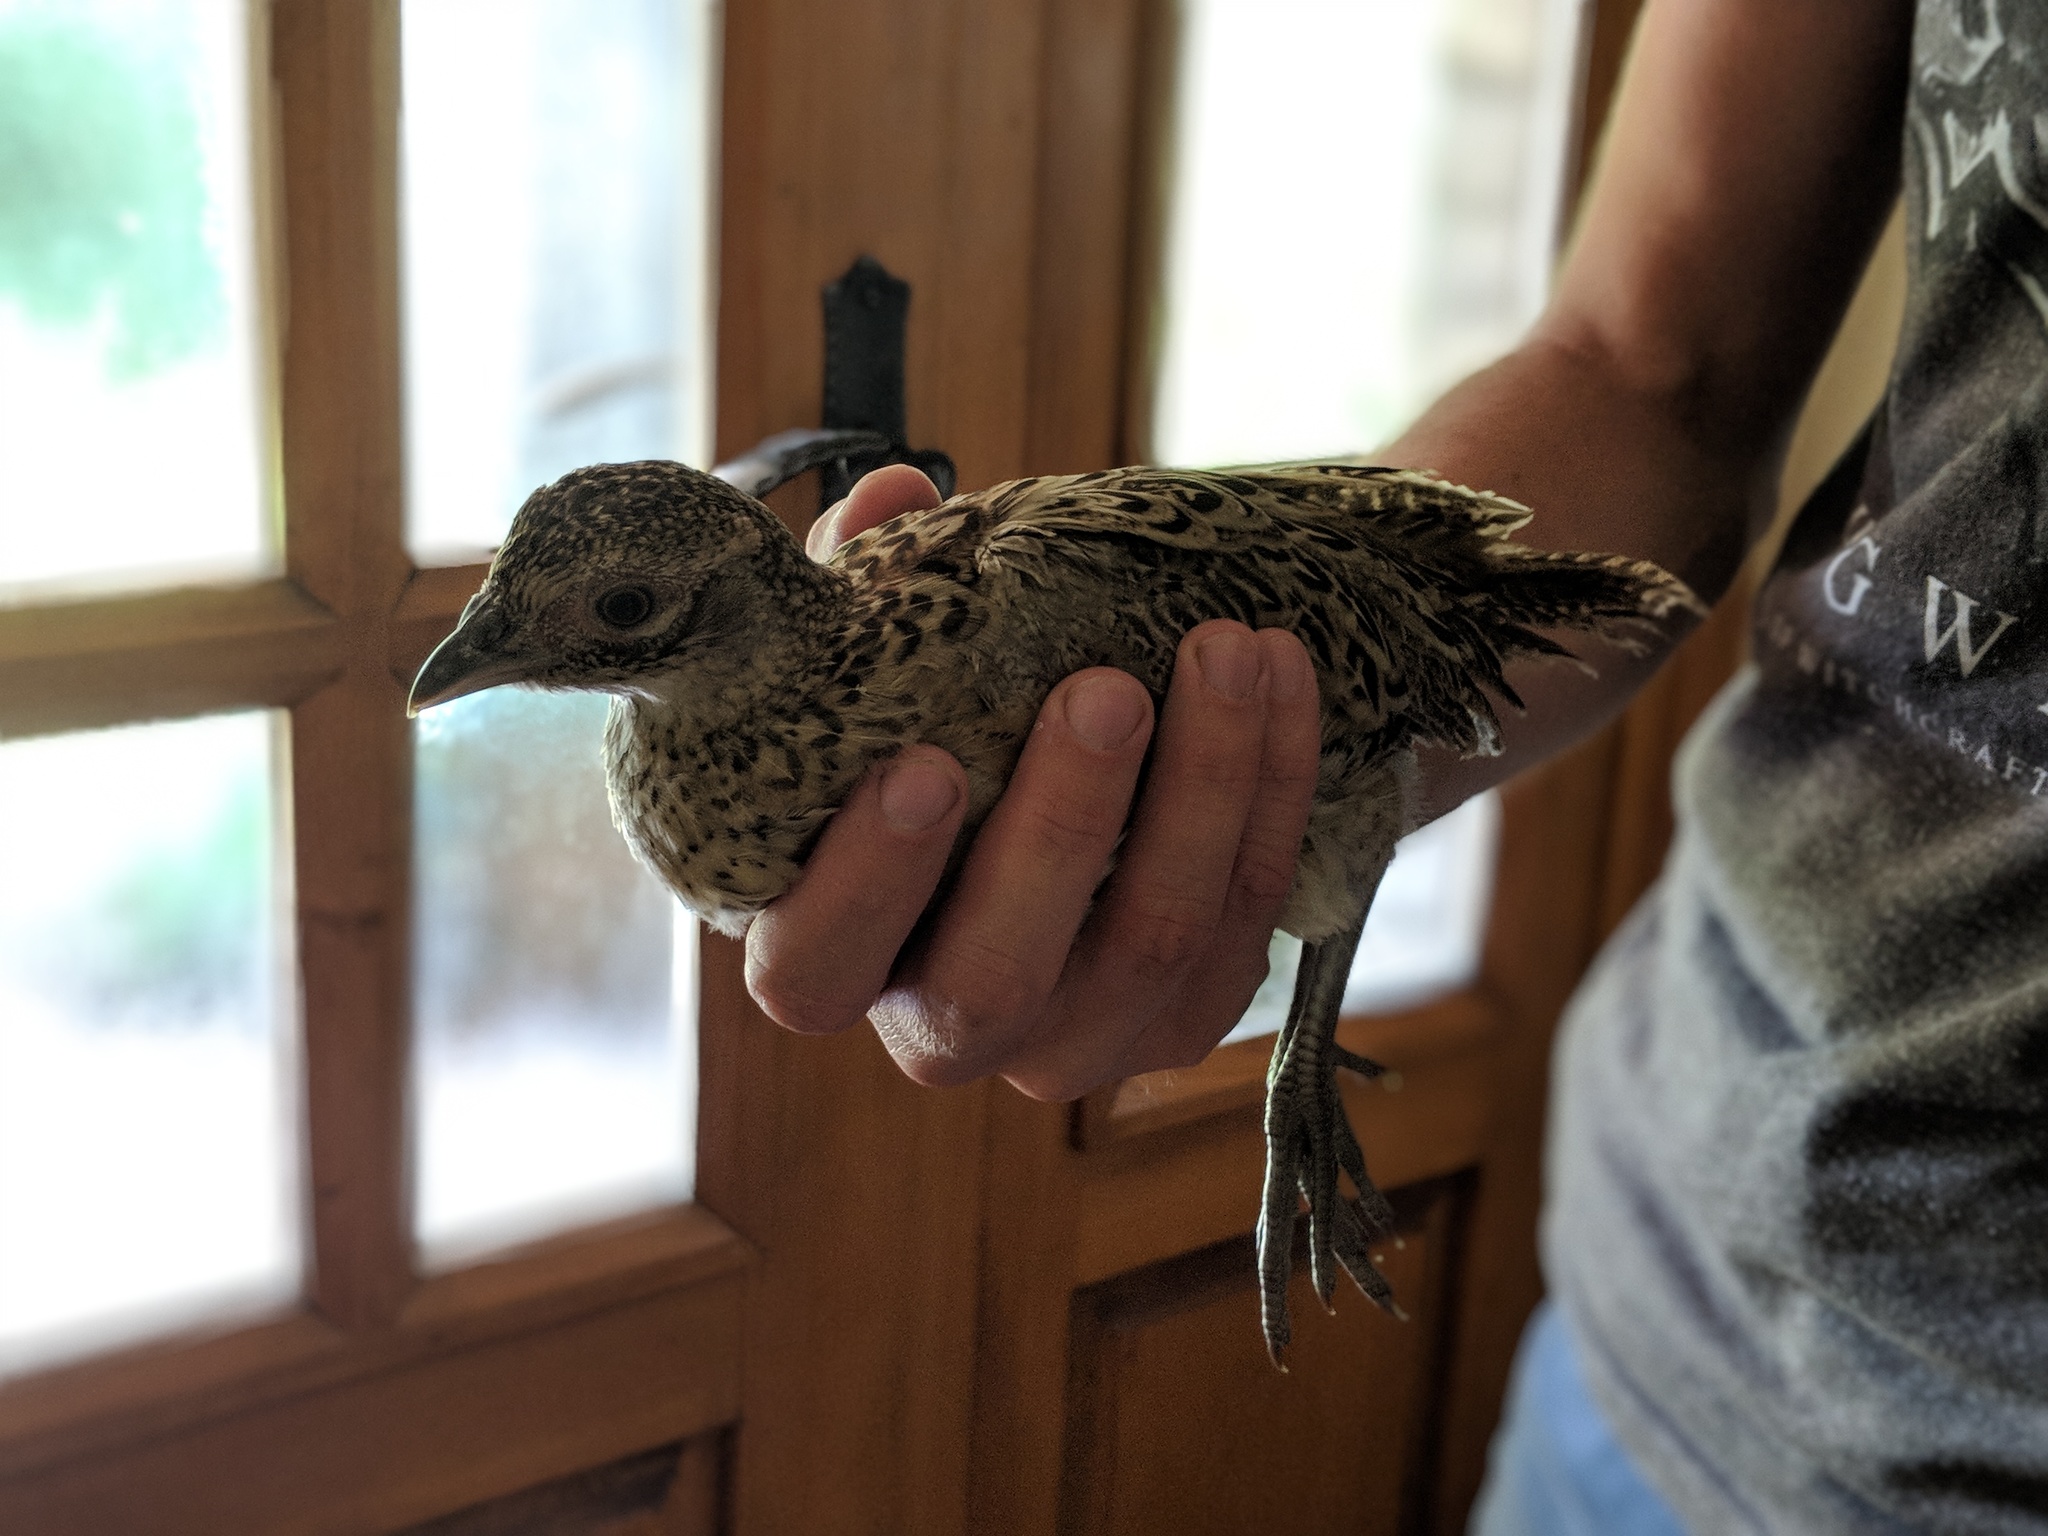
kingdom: Animalia
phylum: Chordata
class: Aves
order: Galliformes
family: Phasianidae
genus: Phasianus
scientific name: Phasianus colchicus
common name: Common pheasant
